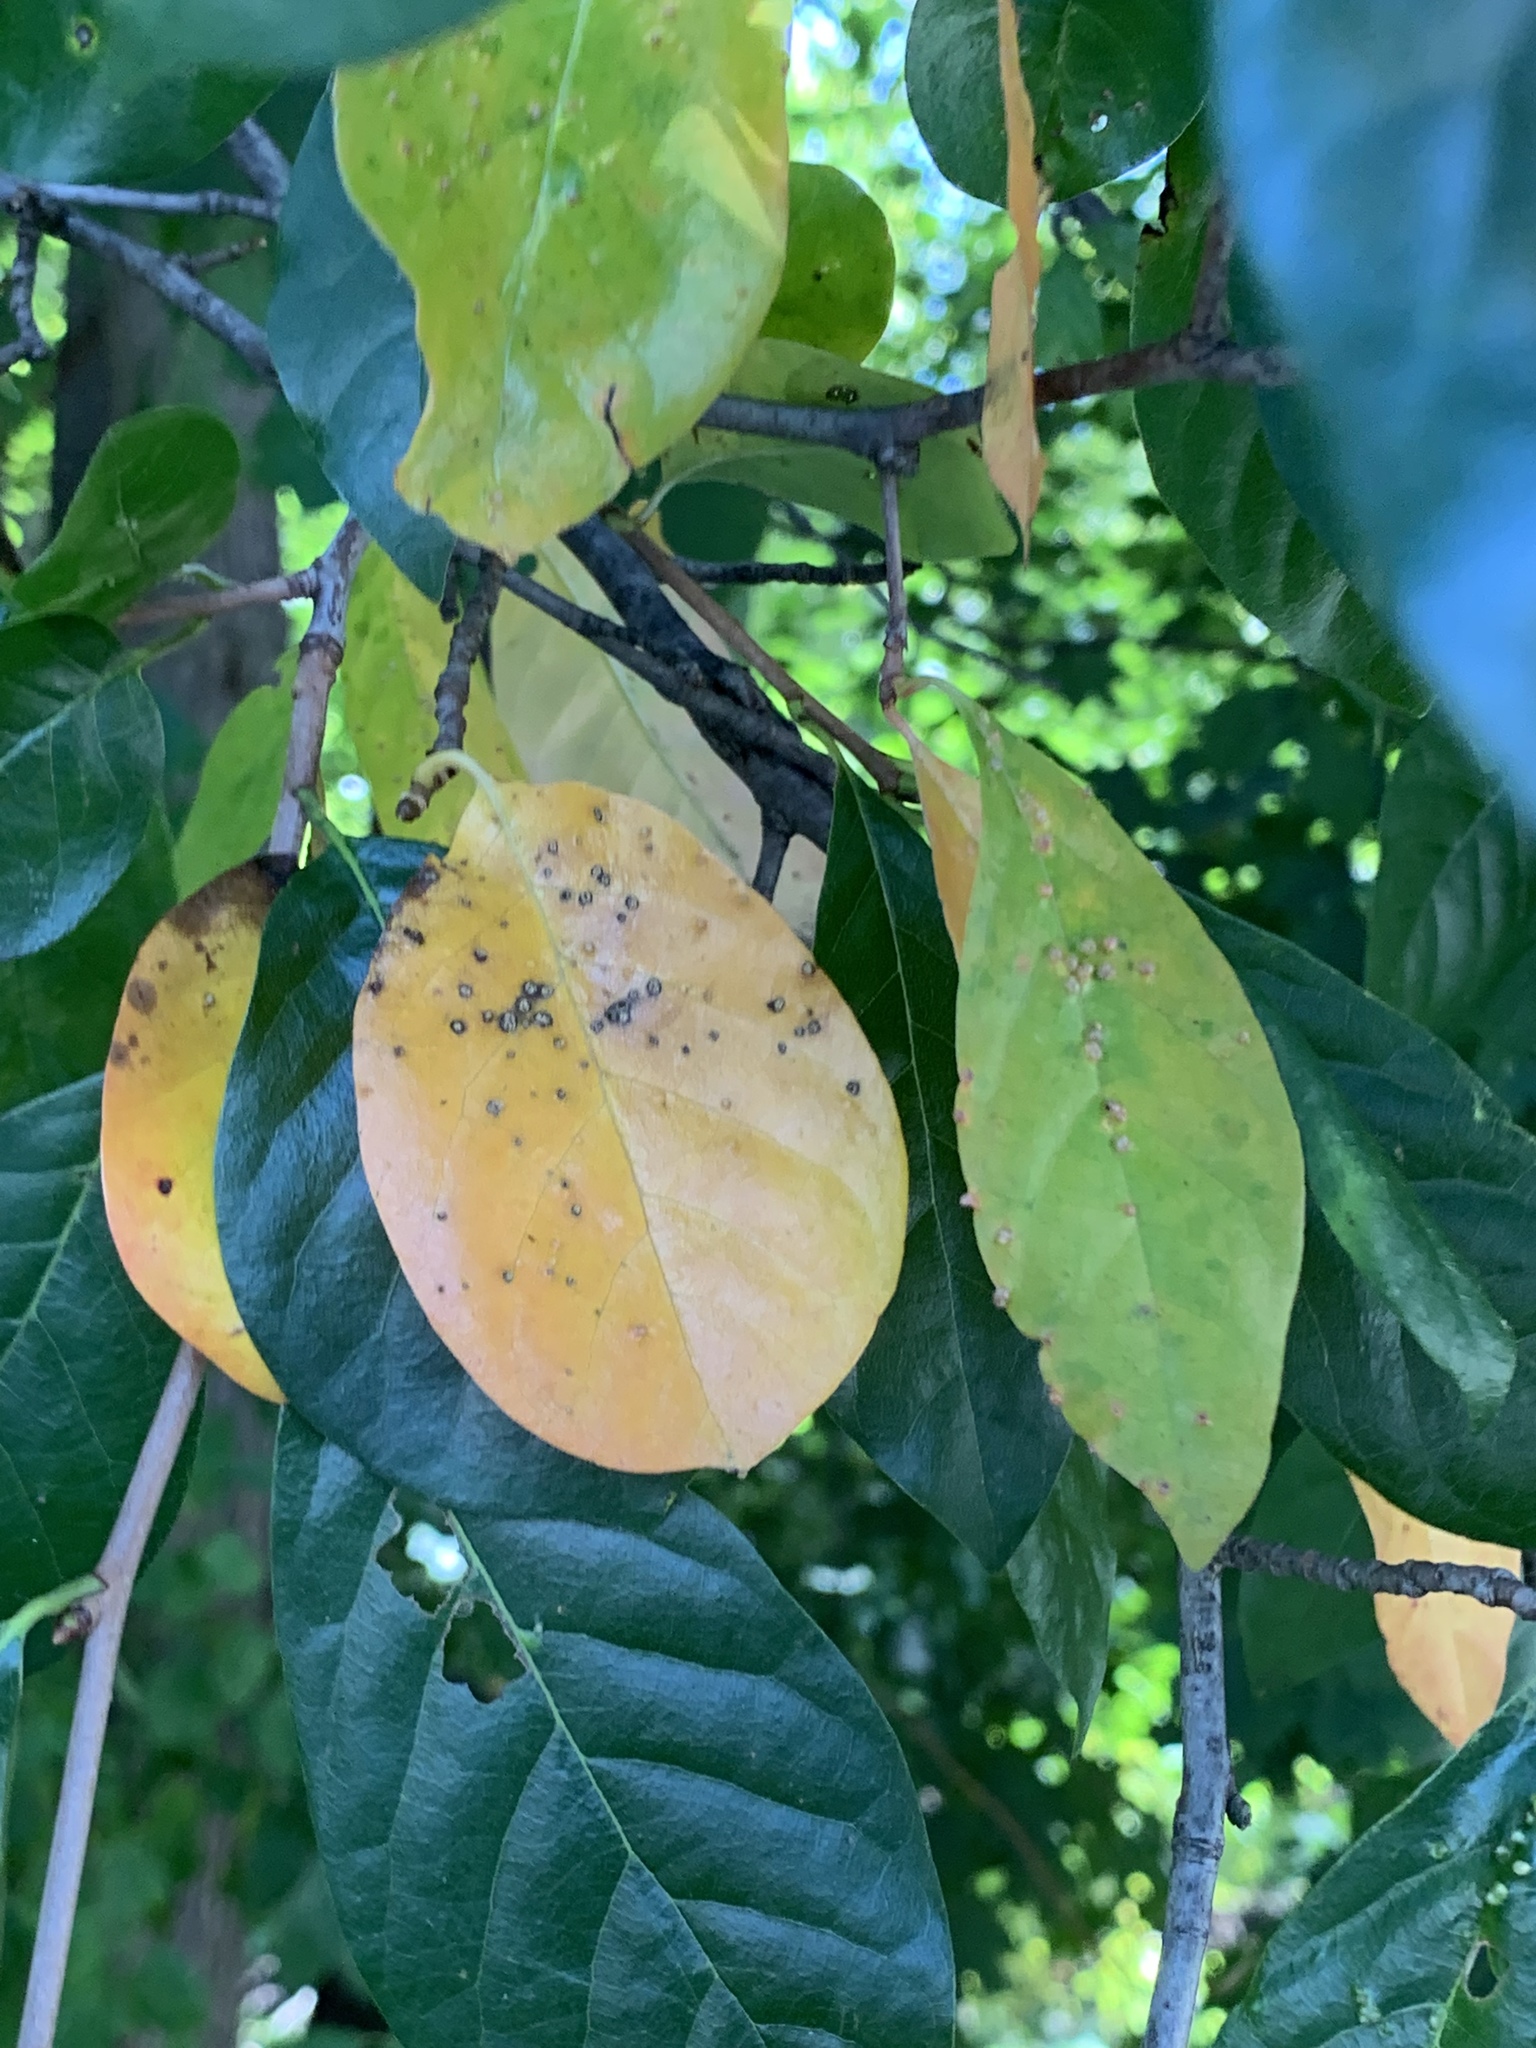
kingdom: Plantae
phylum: Tracheophyta
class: Magnoliopsida
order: Cornales
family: Nyssaceae
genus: Nyssa
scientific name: Nyssa sylvatica
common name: Black tupelo
